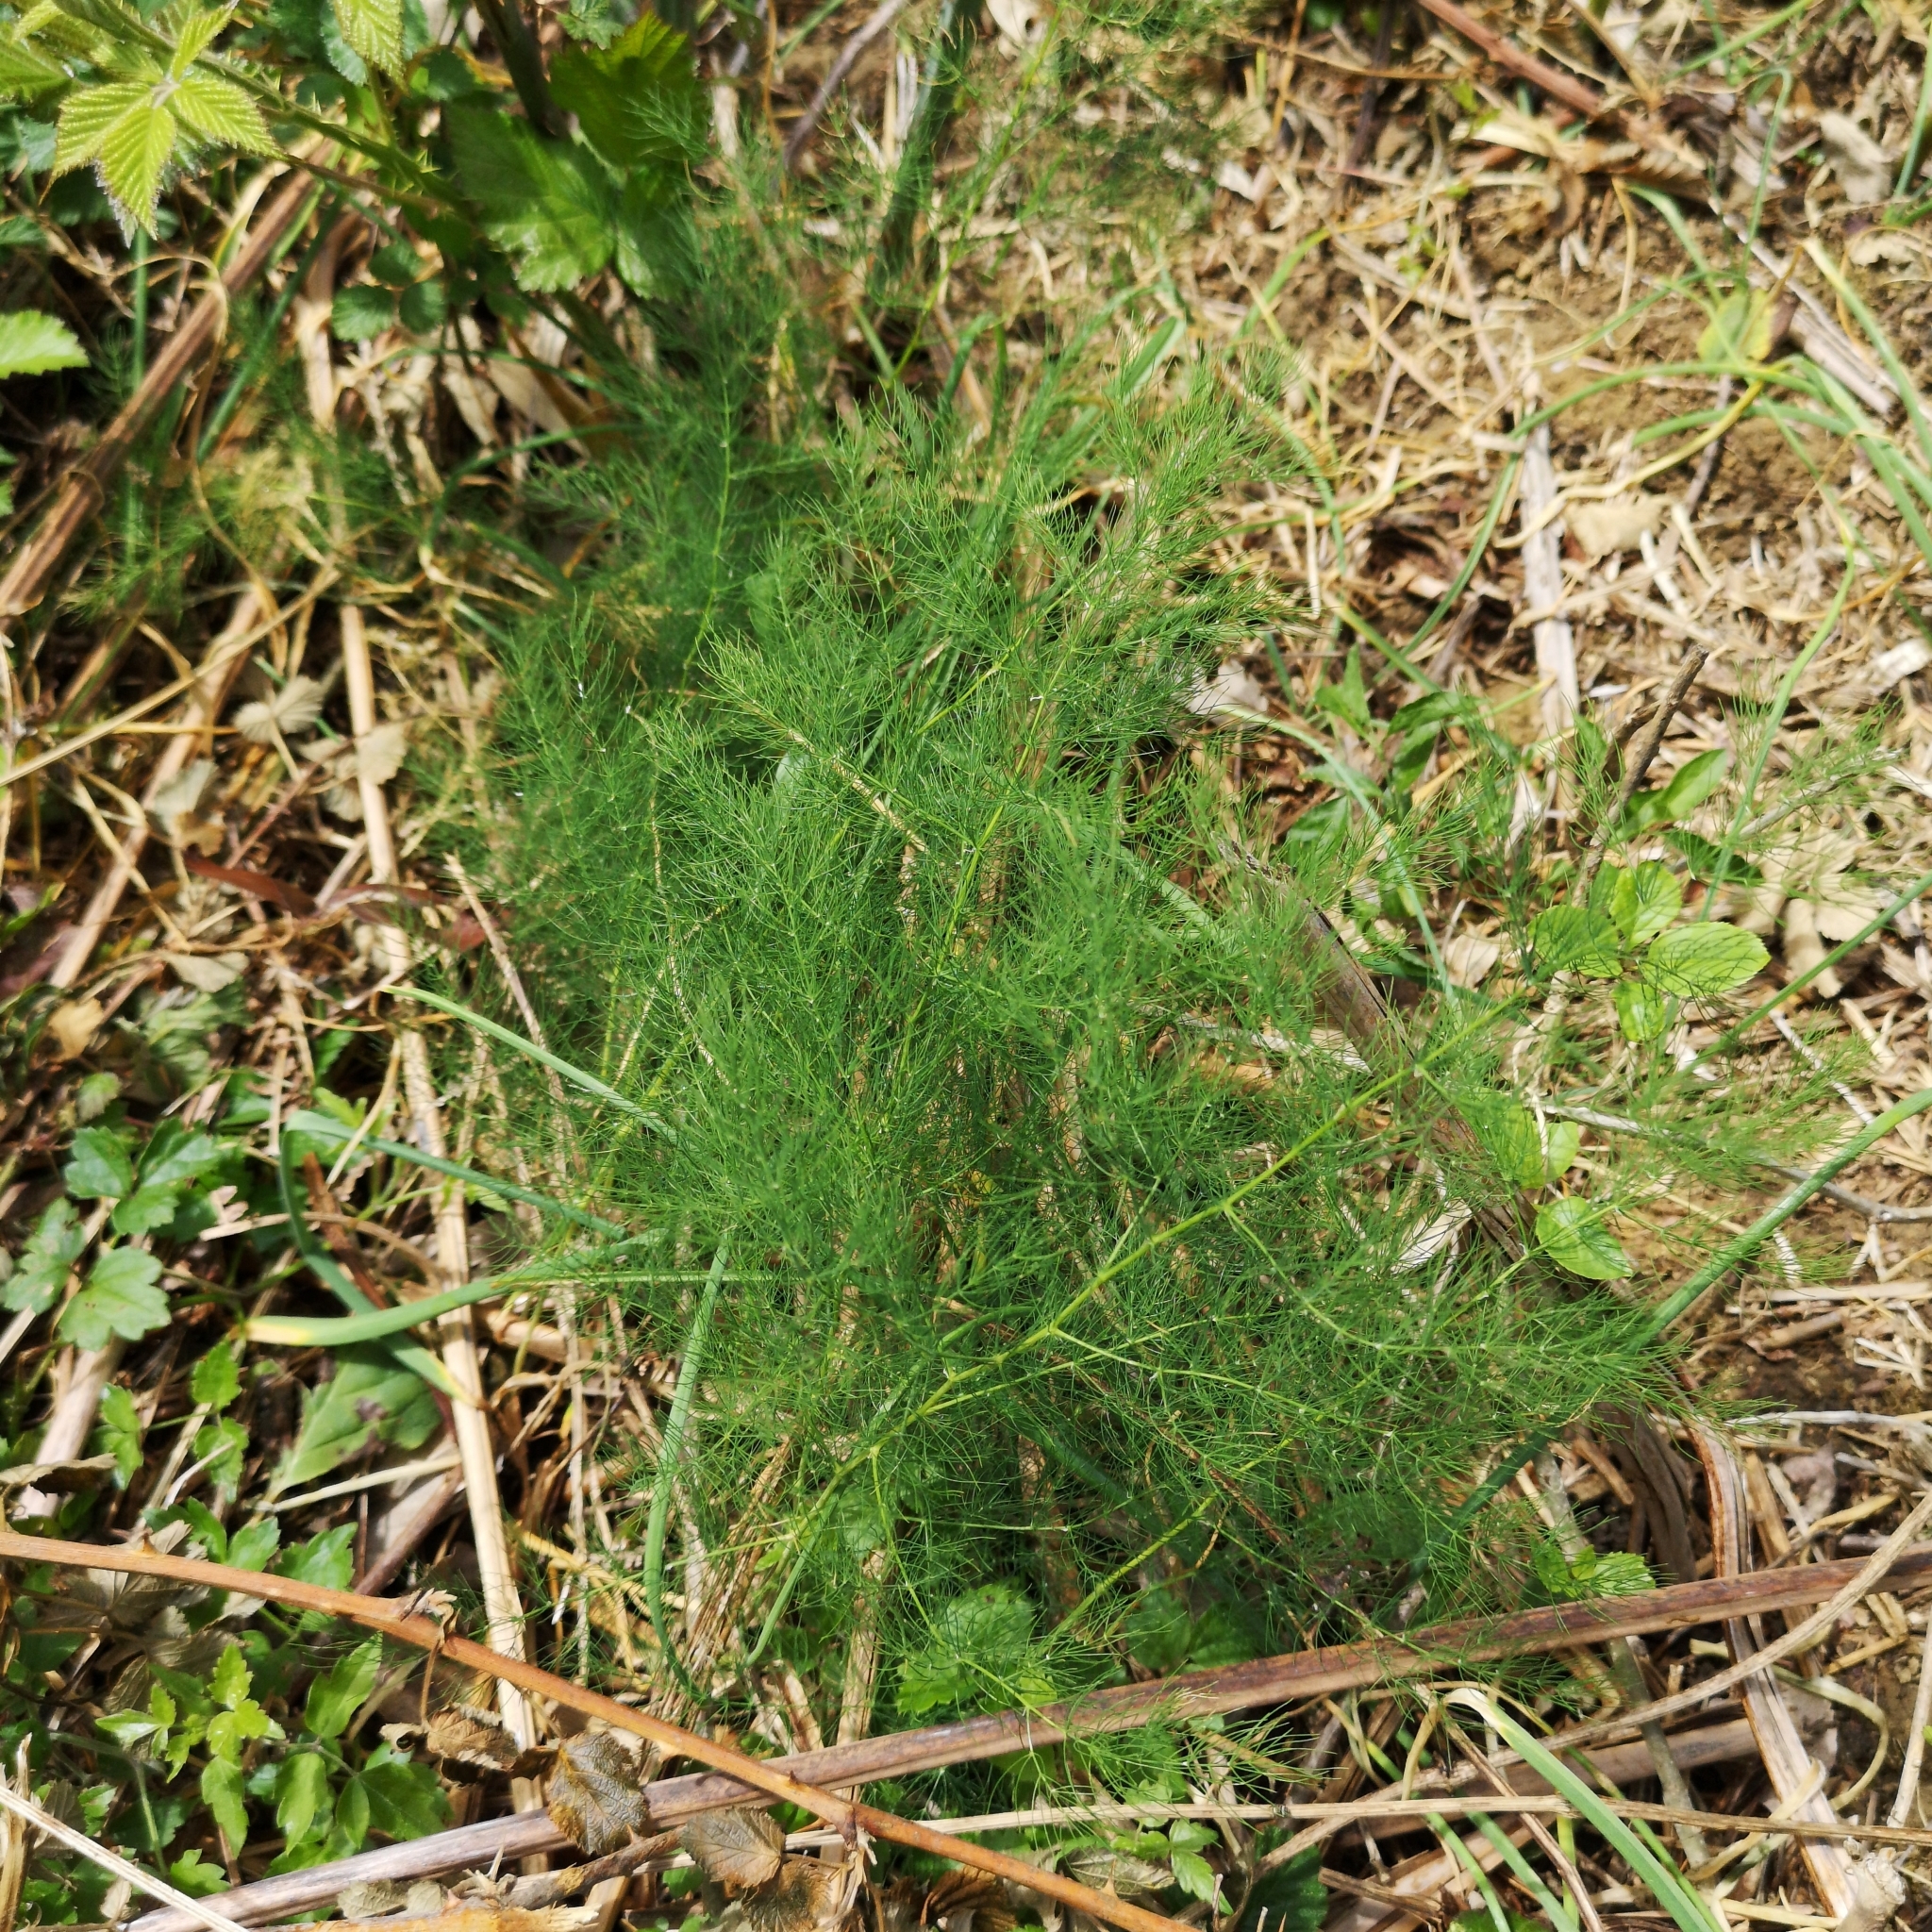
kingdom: Plantae
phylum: Tracheophyta
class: Liliopsida
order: Asparagales
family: Asparagaceae
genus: Asparagus
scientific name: Asparagus tenuifolius
